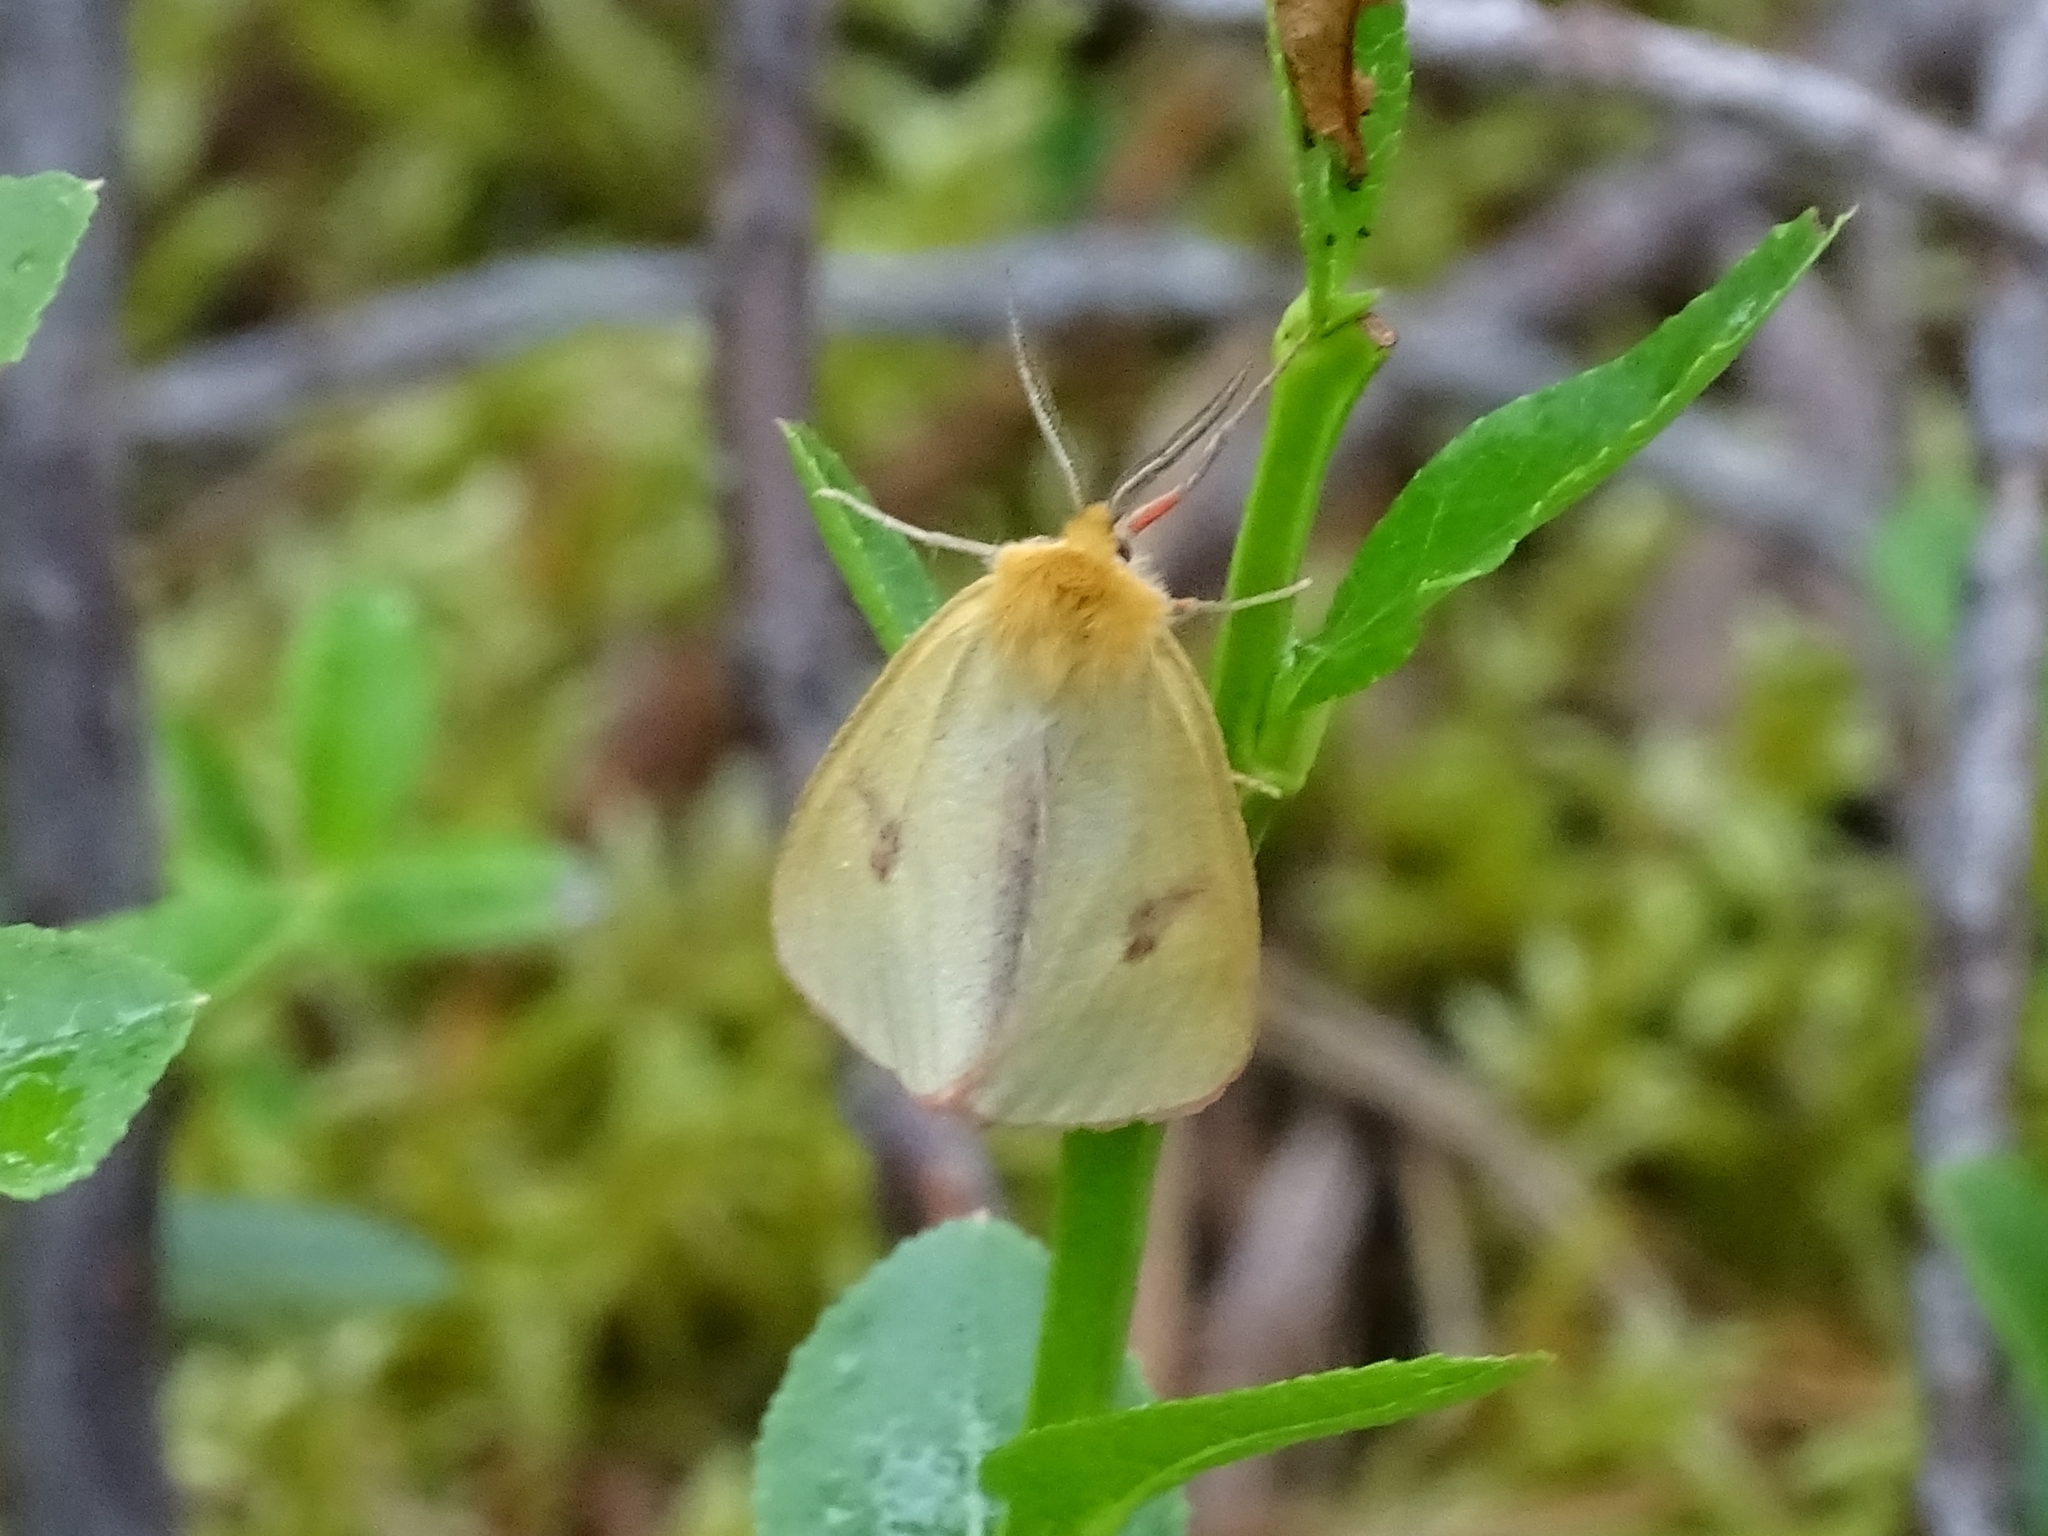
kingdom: Animalia
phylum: Arthropoda
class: Insecta
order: Lepidoptera
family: Erebidae
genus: Diacrisia
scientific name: Diacrisia sannio
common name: Clouded buff
